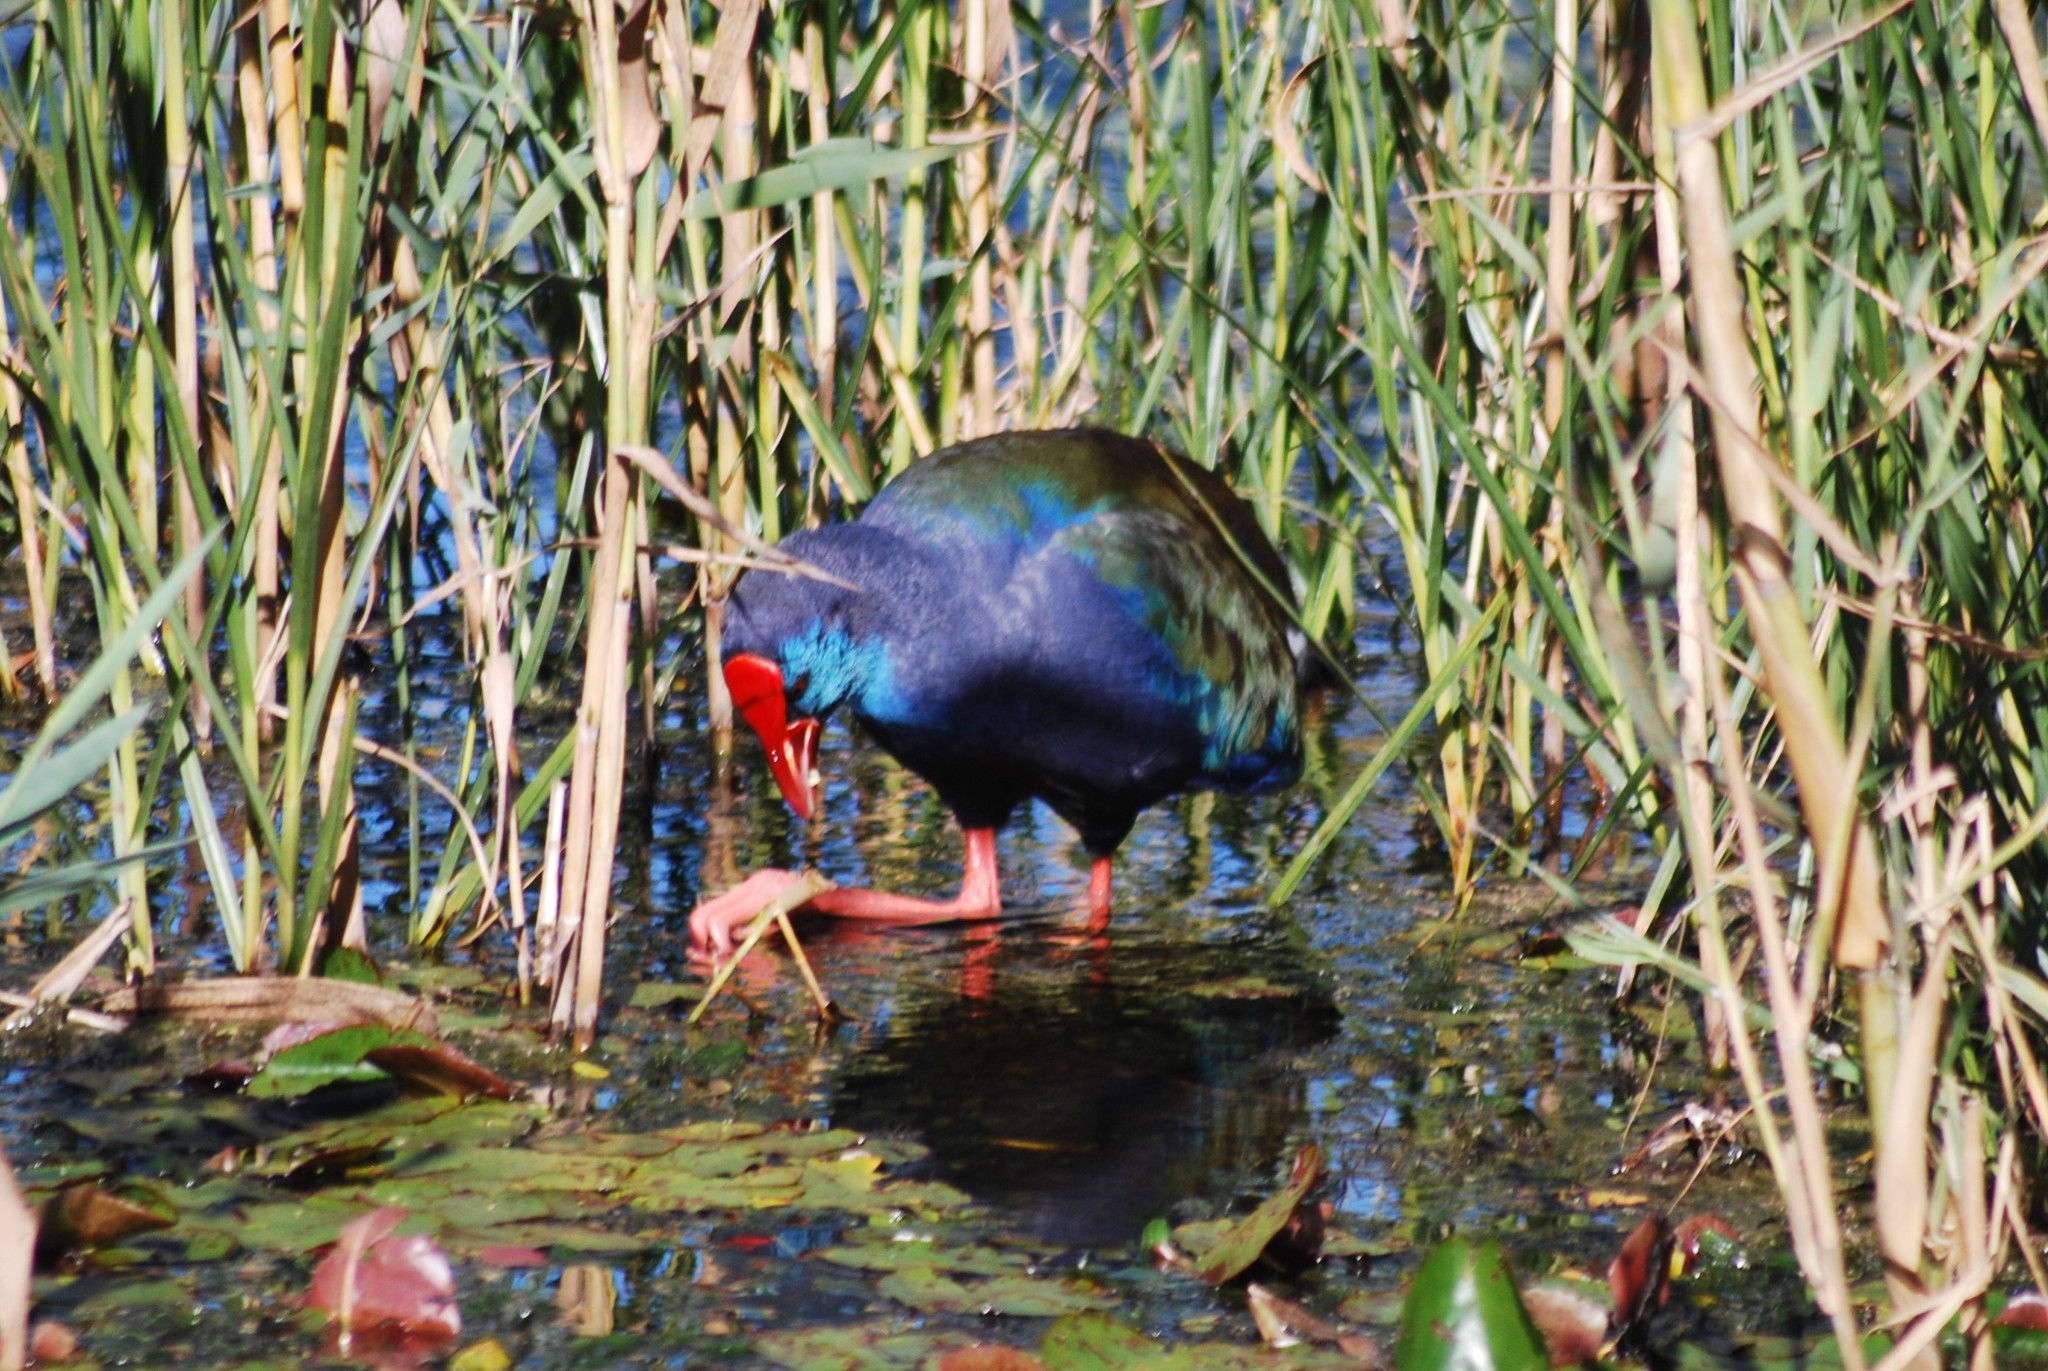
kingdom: Animalia
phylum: Chordata
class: Aves
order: Gruiformes
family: Rallidae
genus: Porphyrio
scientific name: Porphyrio porphyrio
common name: Purple swamphen
